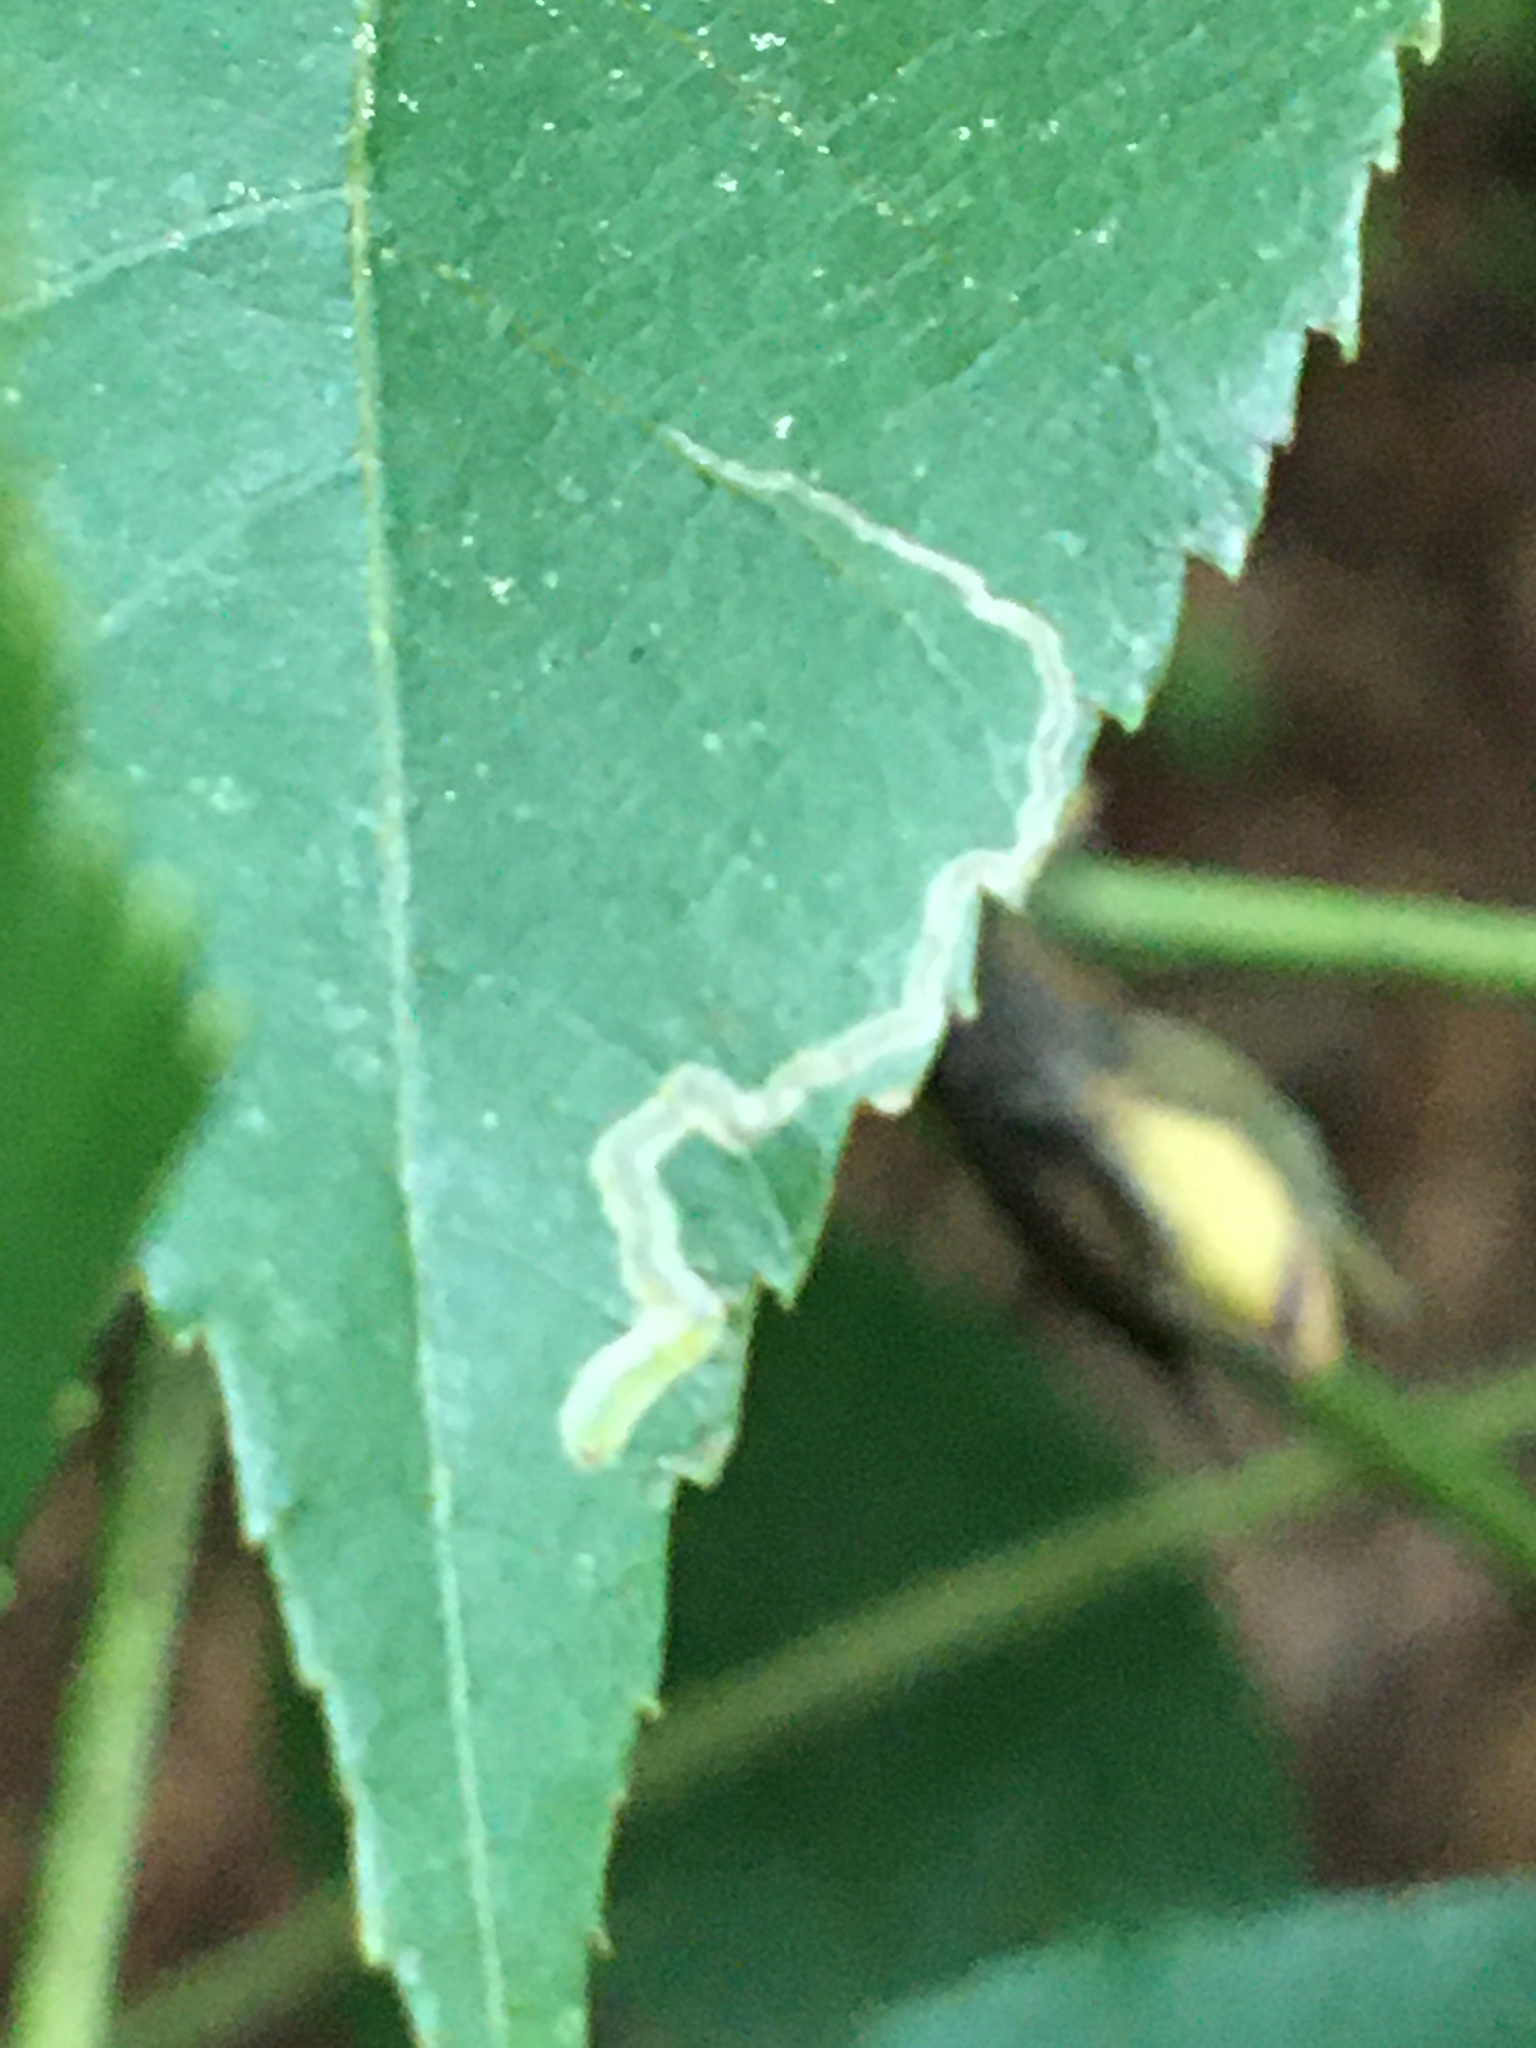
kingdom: Animalia
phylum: Arthropoda
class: Insecta
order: Lepidoptera
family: Nepticulidae
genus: Stigmella
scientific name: Stigmella caryaefoliella
